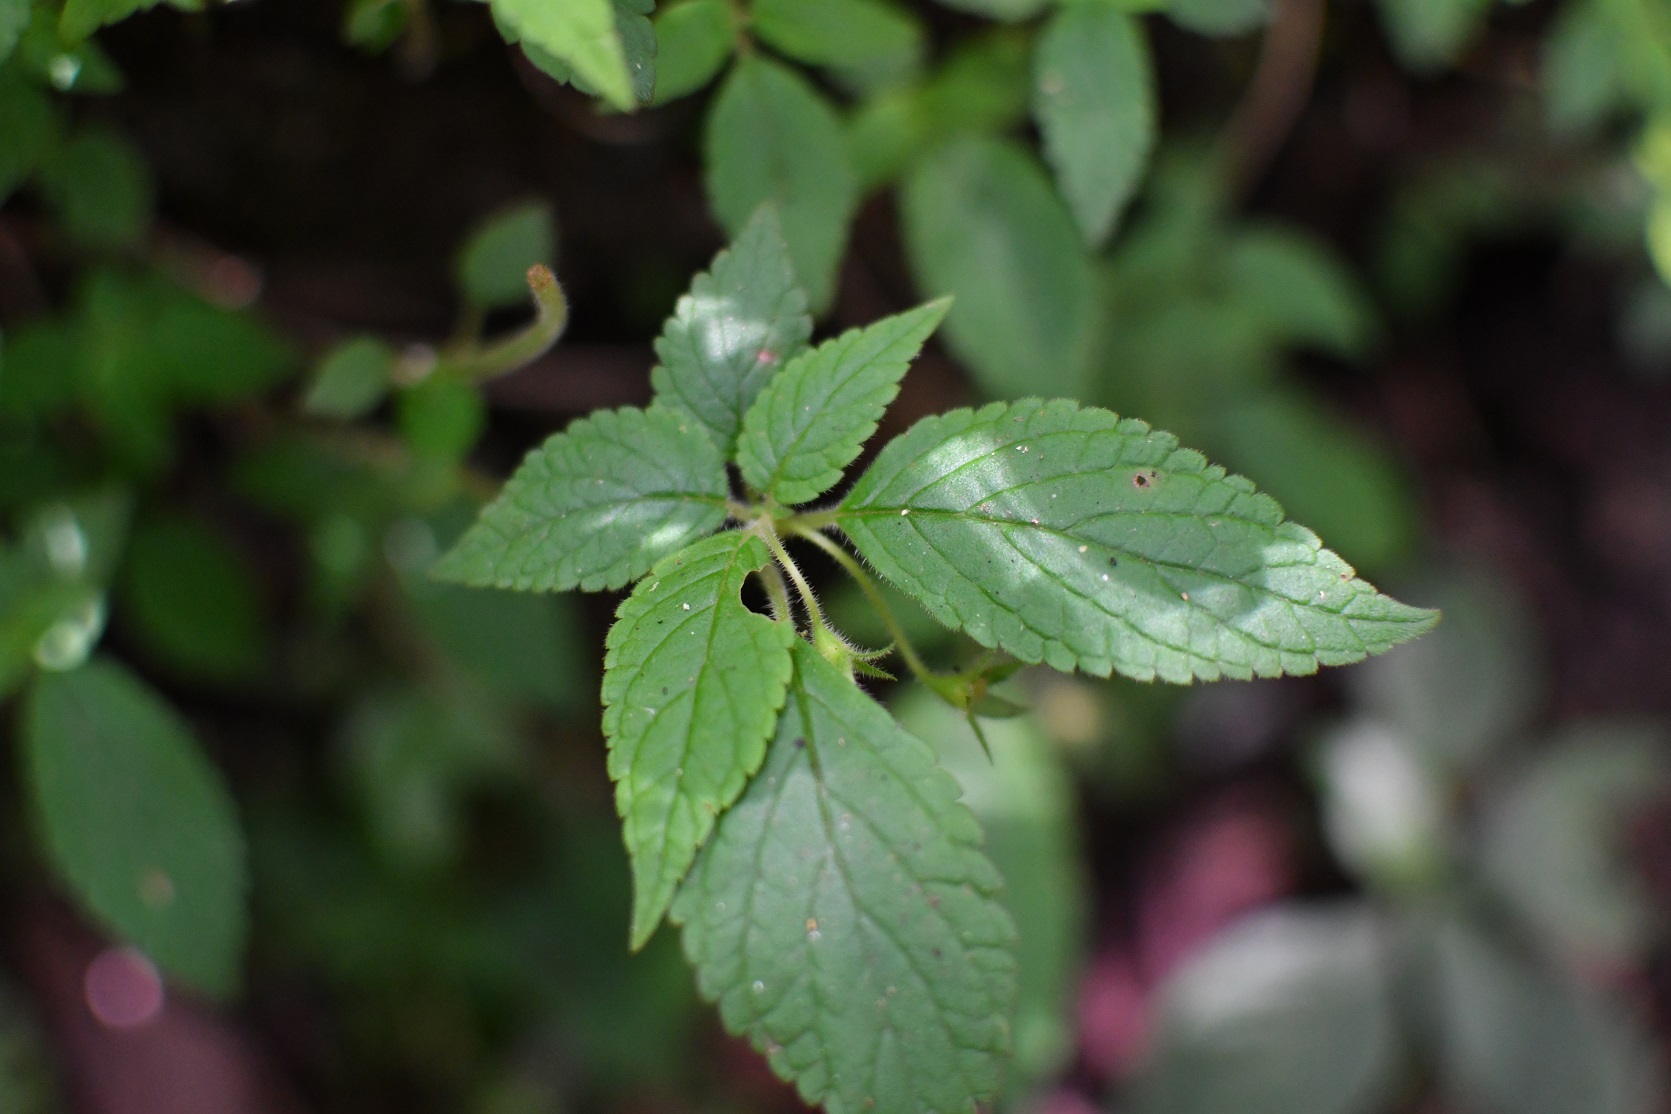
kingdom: Plantae
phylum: Tracheophyta
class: Magnoliopsida
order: Lamiales
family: Gesneriaceae
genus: Achimenes
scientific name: Achimenes misera
